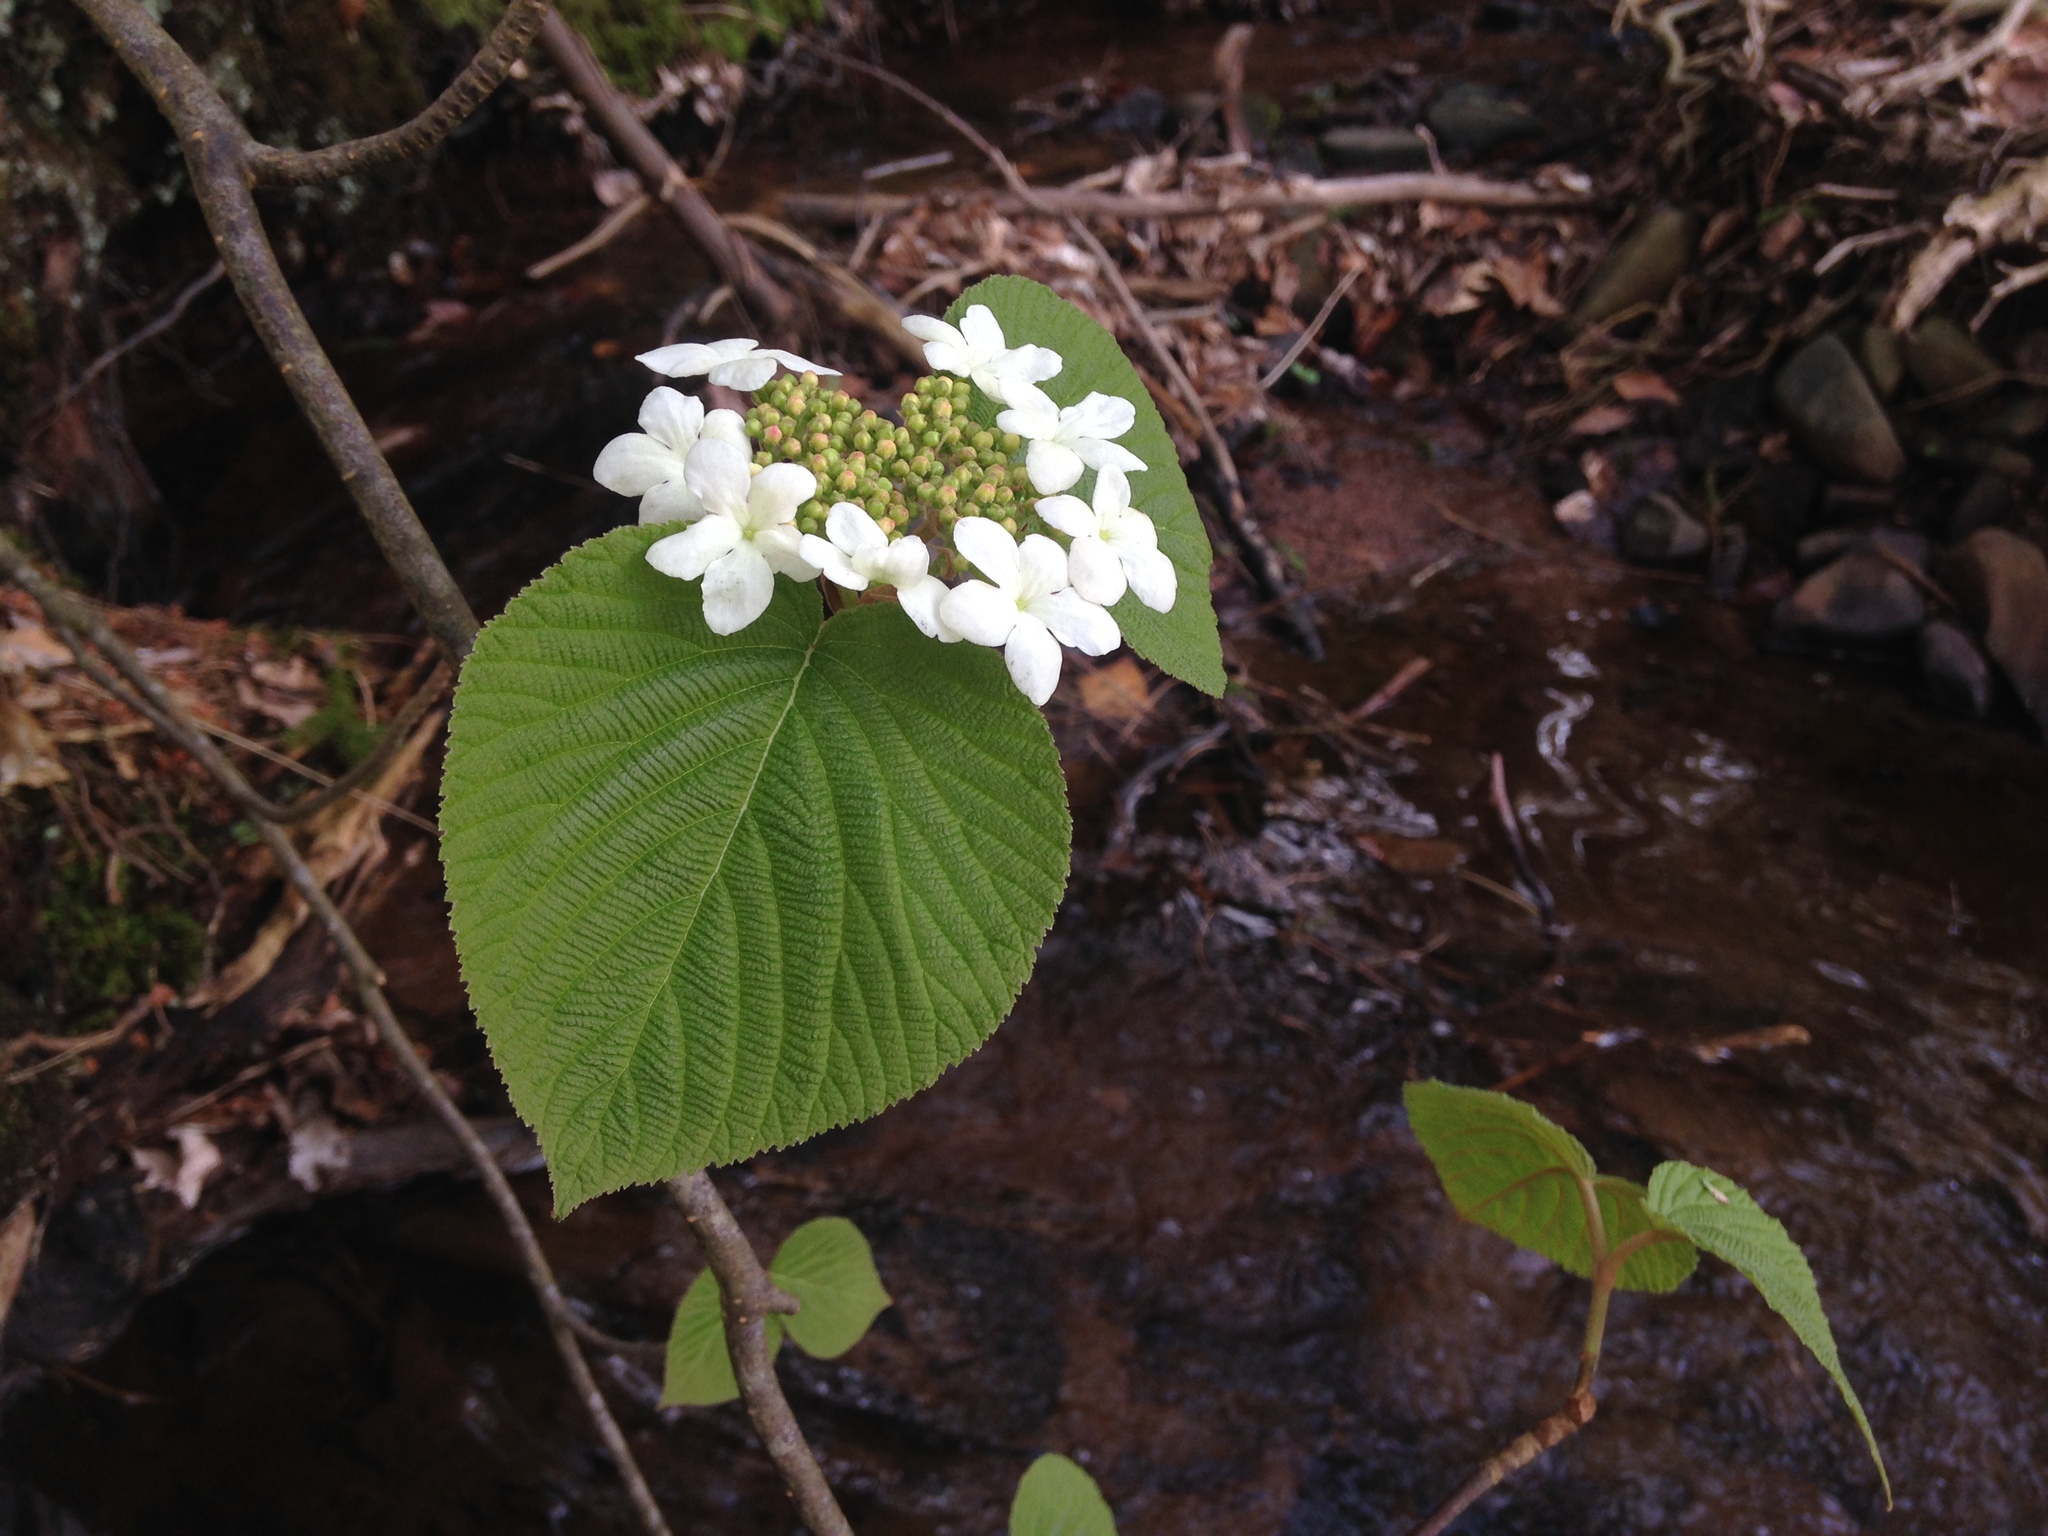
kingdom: Plantae
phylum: Tracheophyta
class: Magnoliopsida
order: Dipsacales
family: Viburnaceae
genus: Viburnum
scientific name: Viburnum lantanoides
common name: Hobblebush
